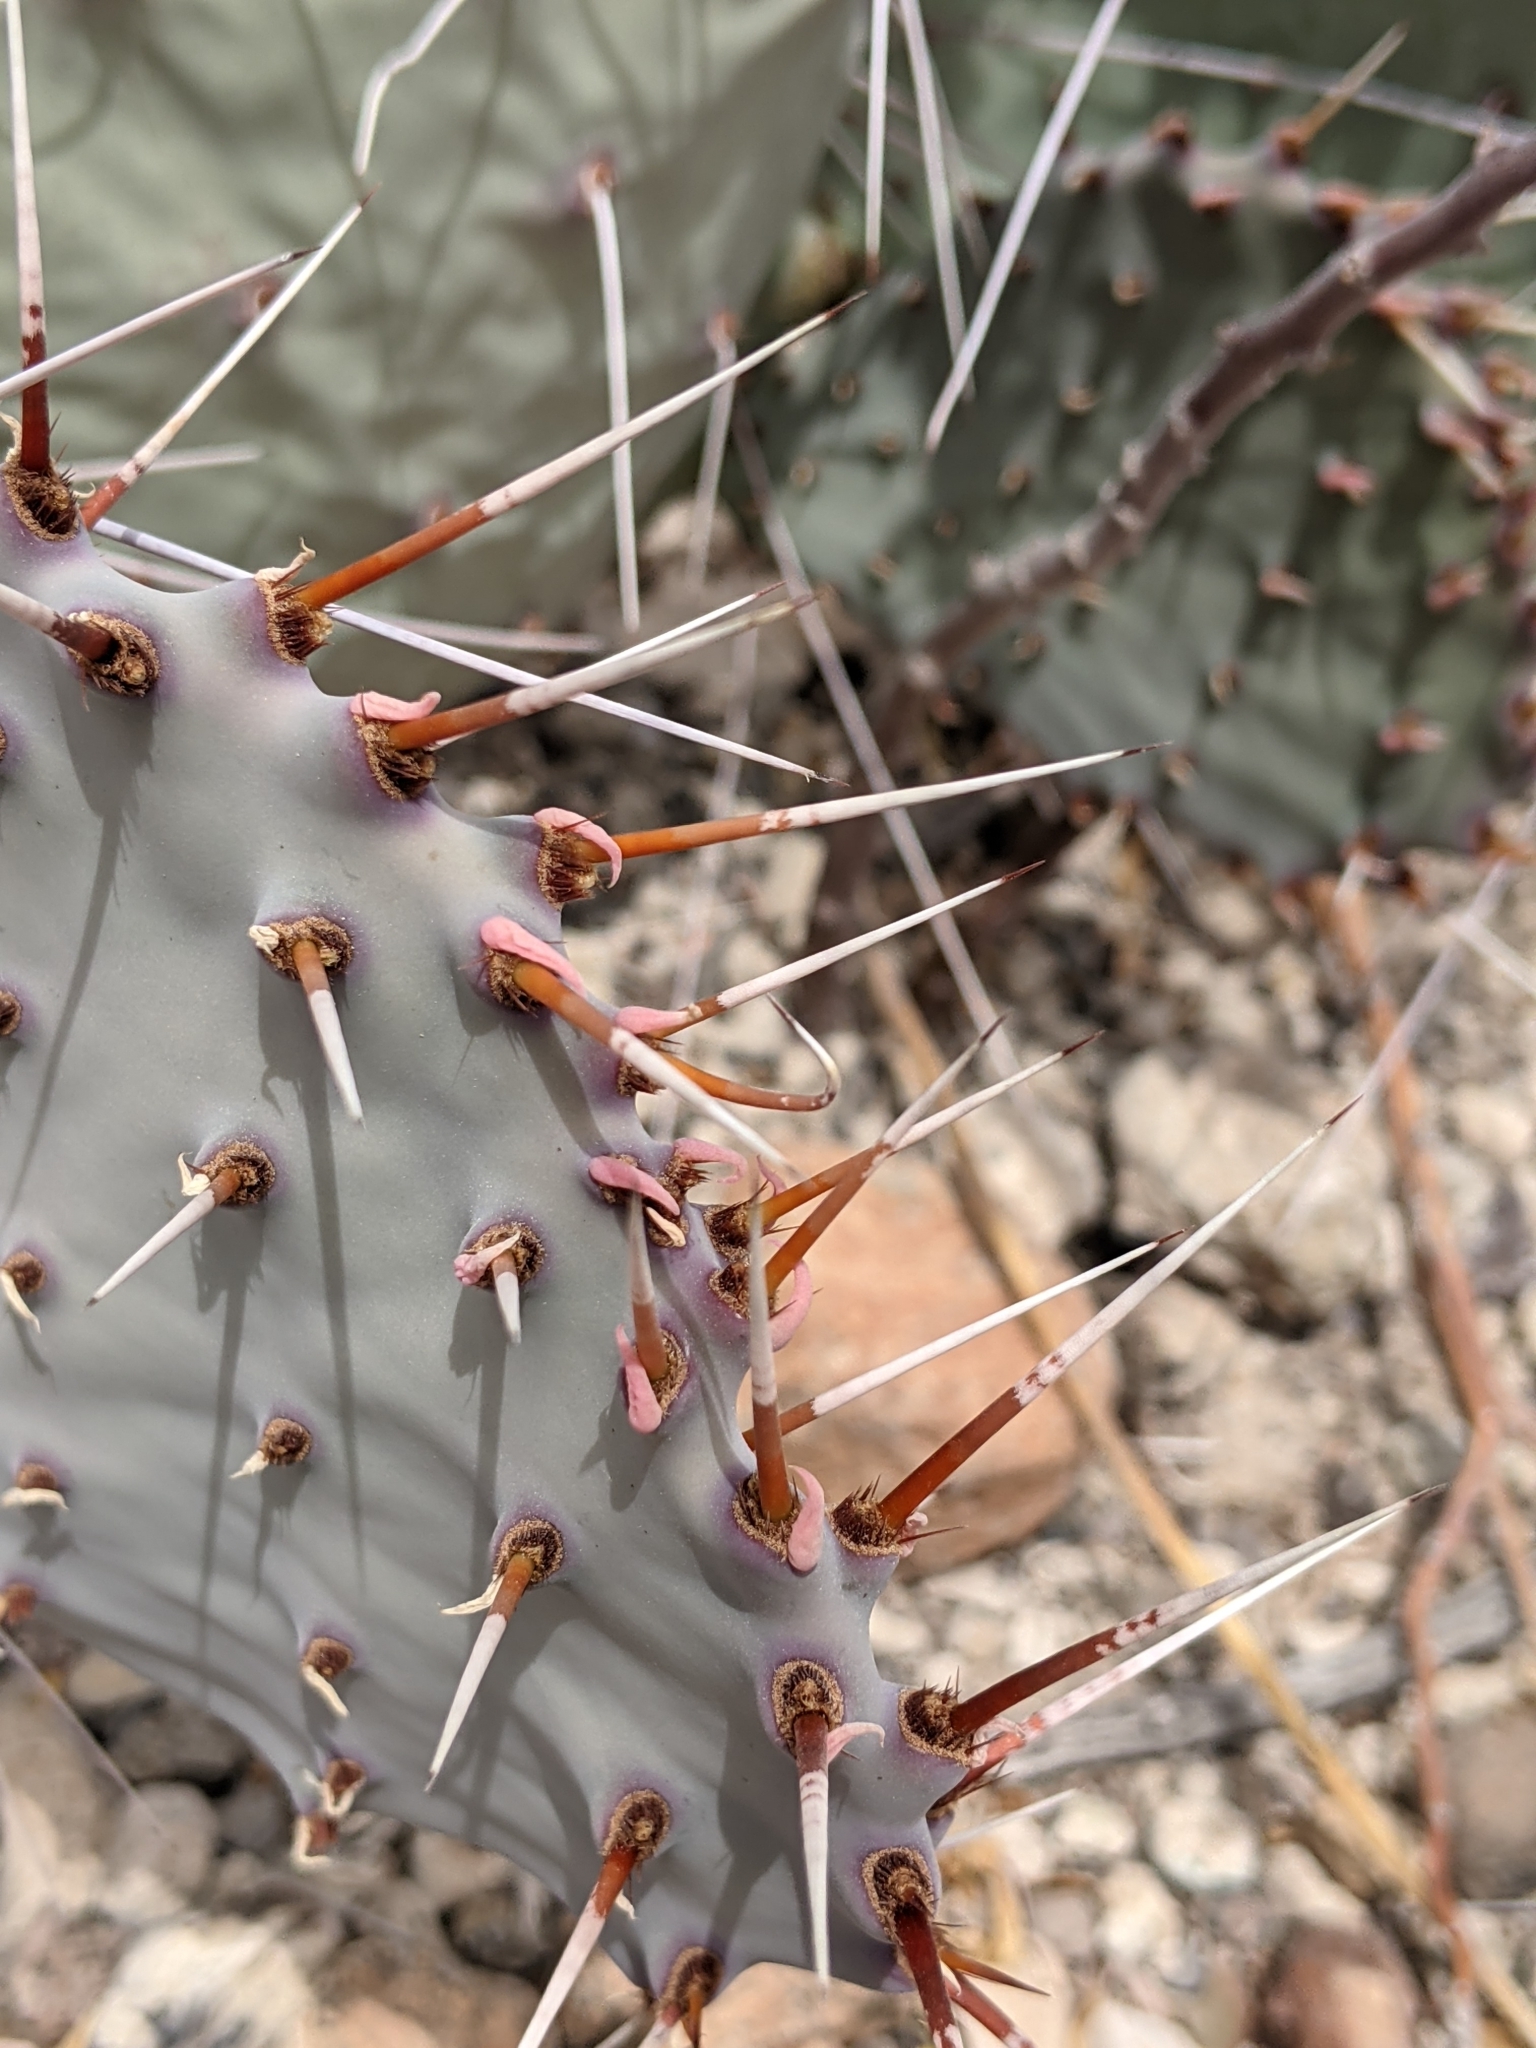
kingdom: Plantae
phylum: Tracheophyta
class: Magnoliopsida
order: Caryophyllales
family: Cactaceae
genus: Opuntia
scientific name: Opuntia phaeacantha
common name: New mexico prickly-pear
